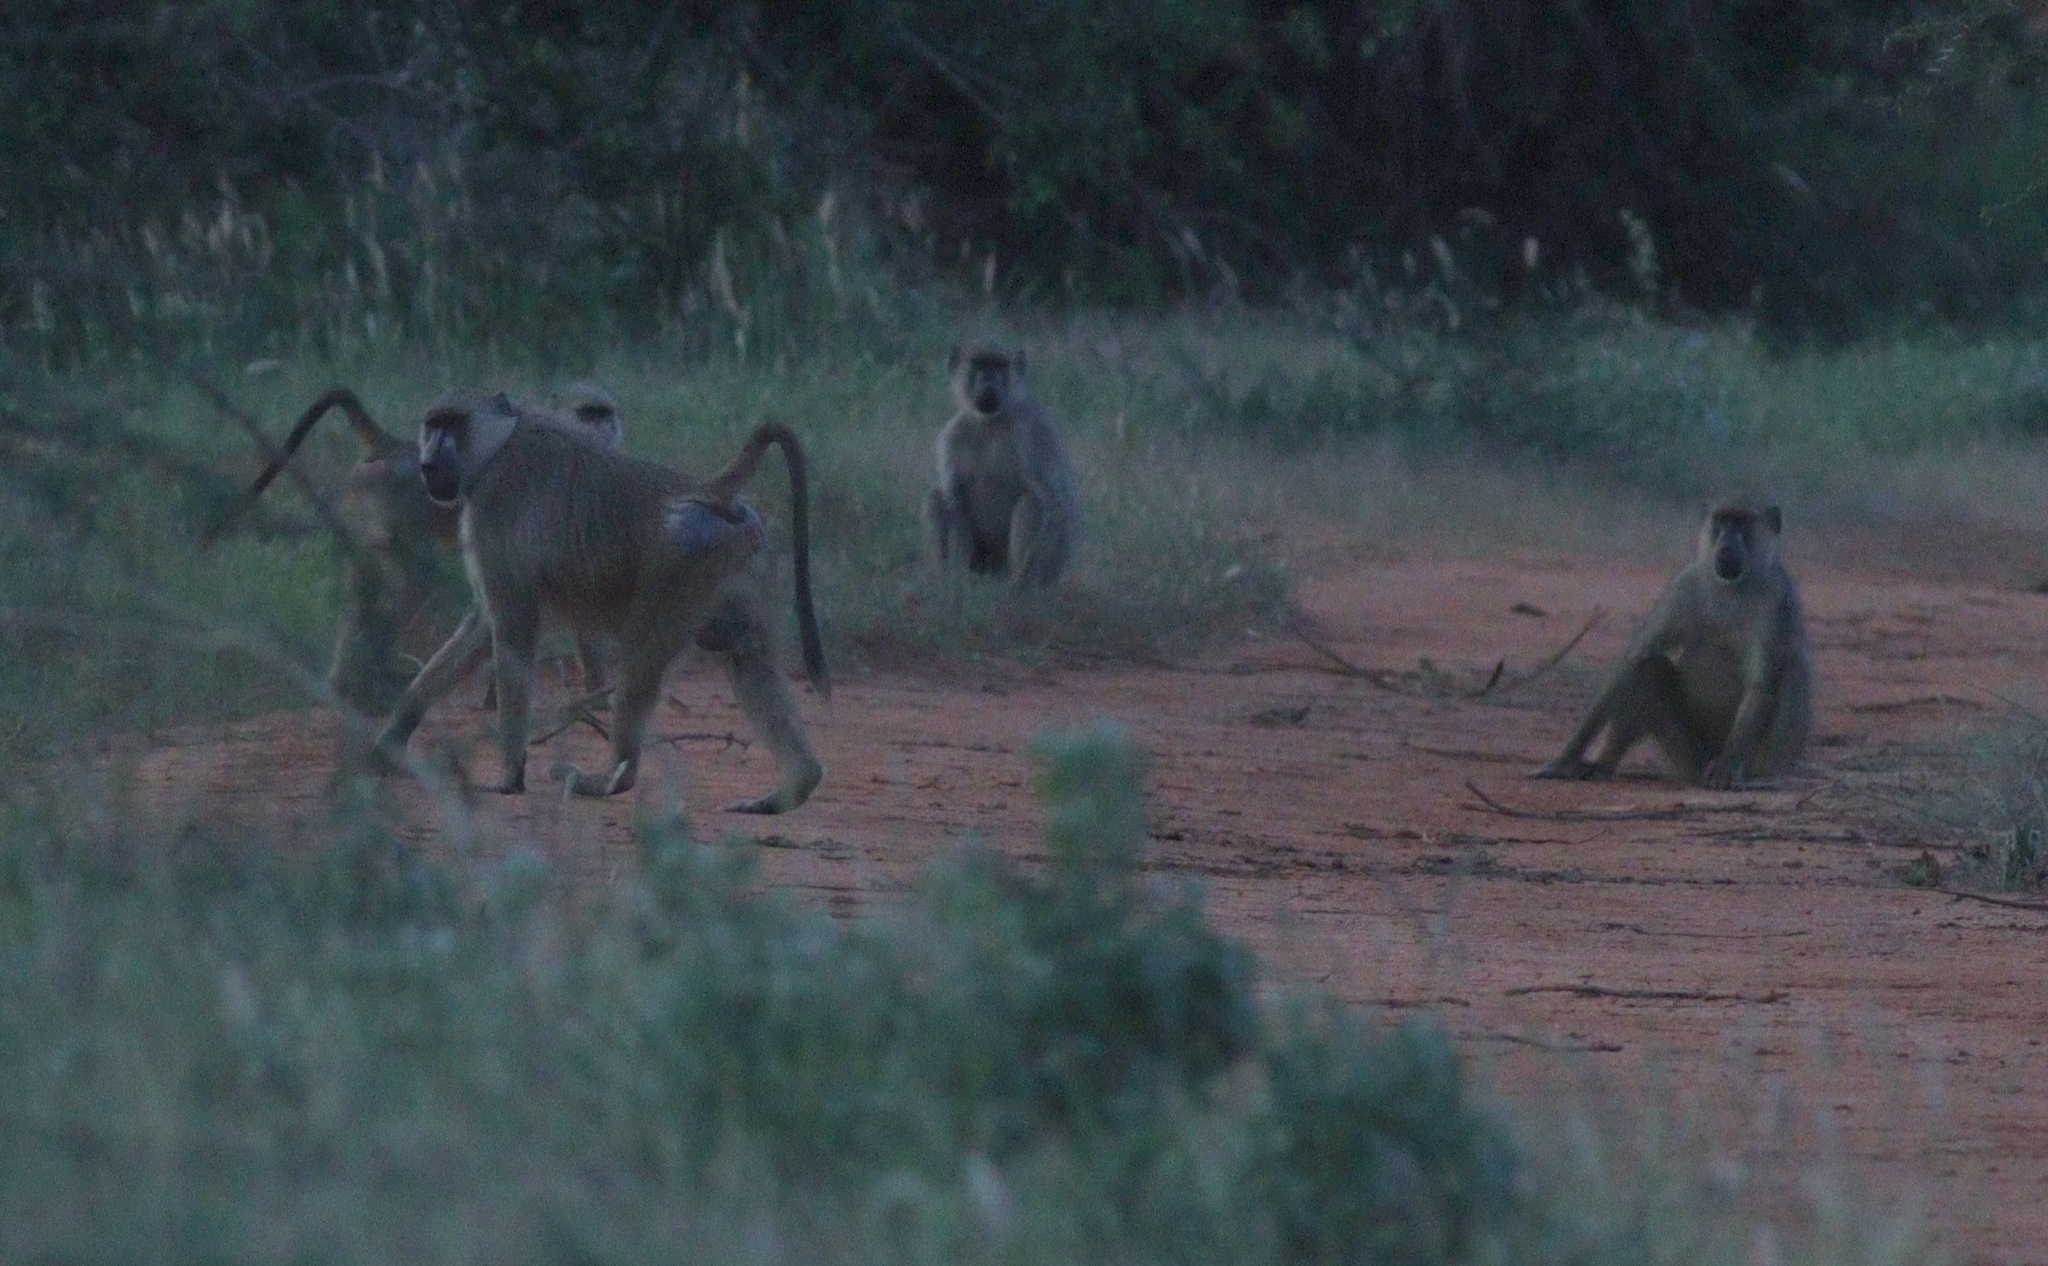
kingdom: Animalia
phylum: Chordata
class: Mammalia
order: Primates
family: Cercopithecidae
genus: Papio
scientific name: Papio cynocephalus
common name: Yellow baboon
